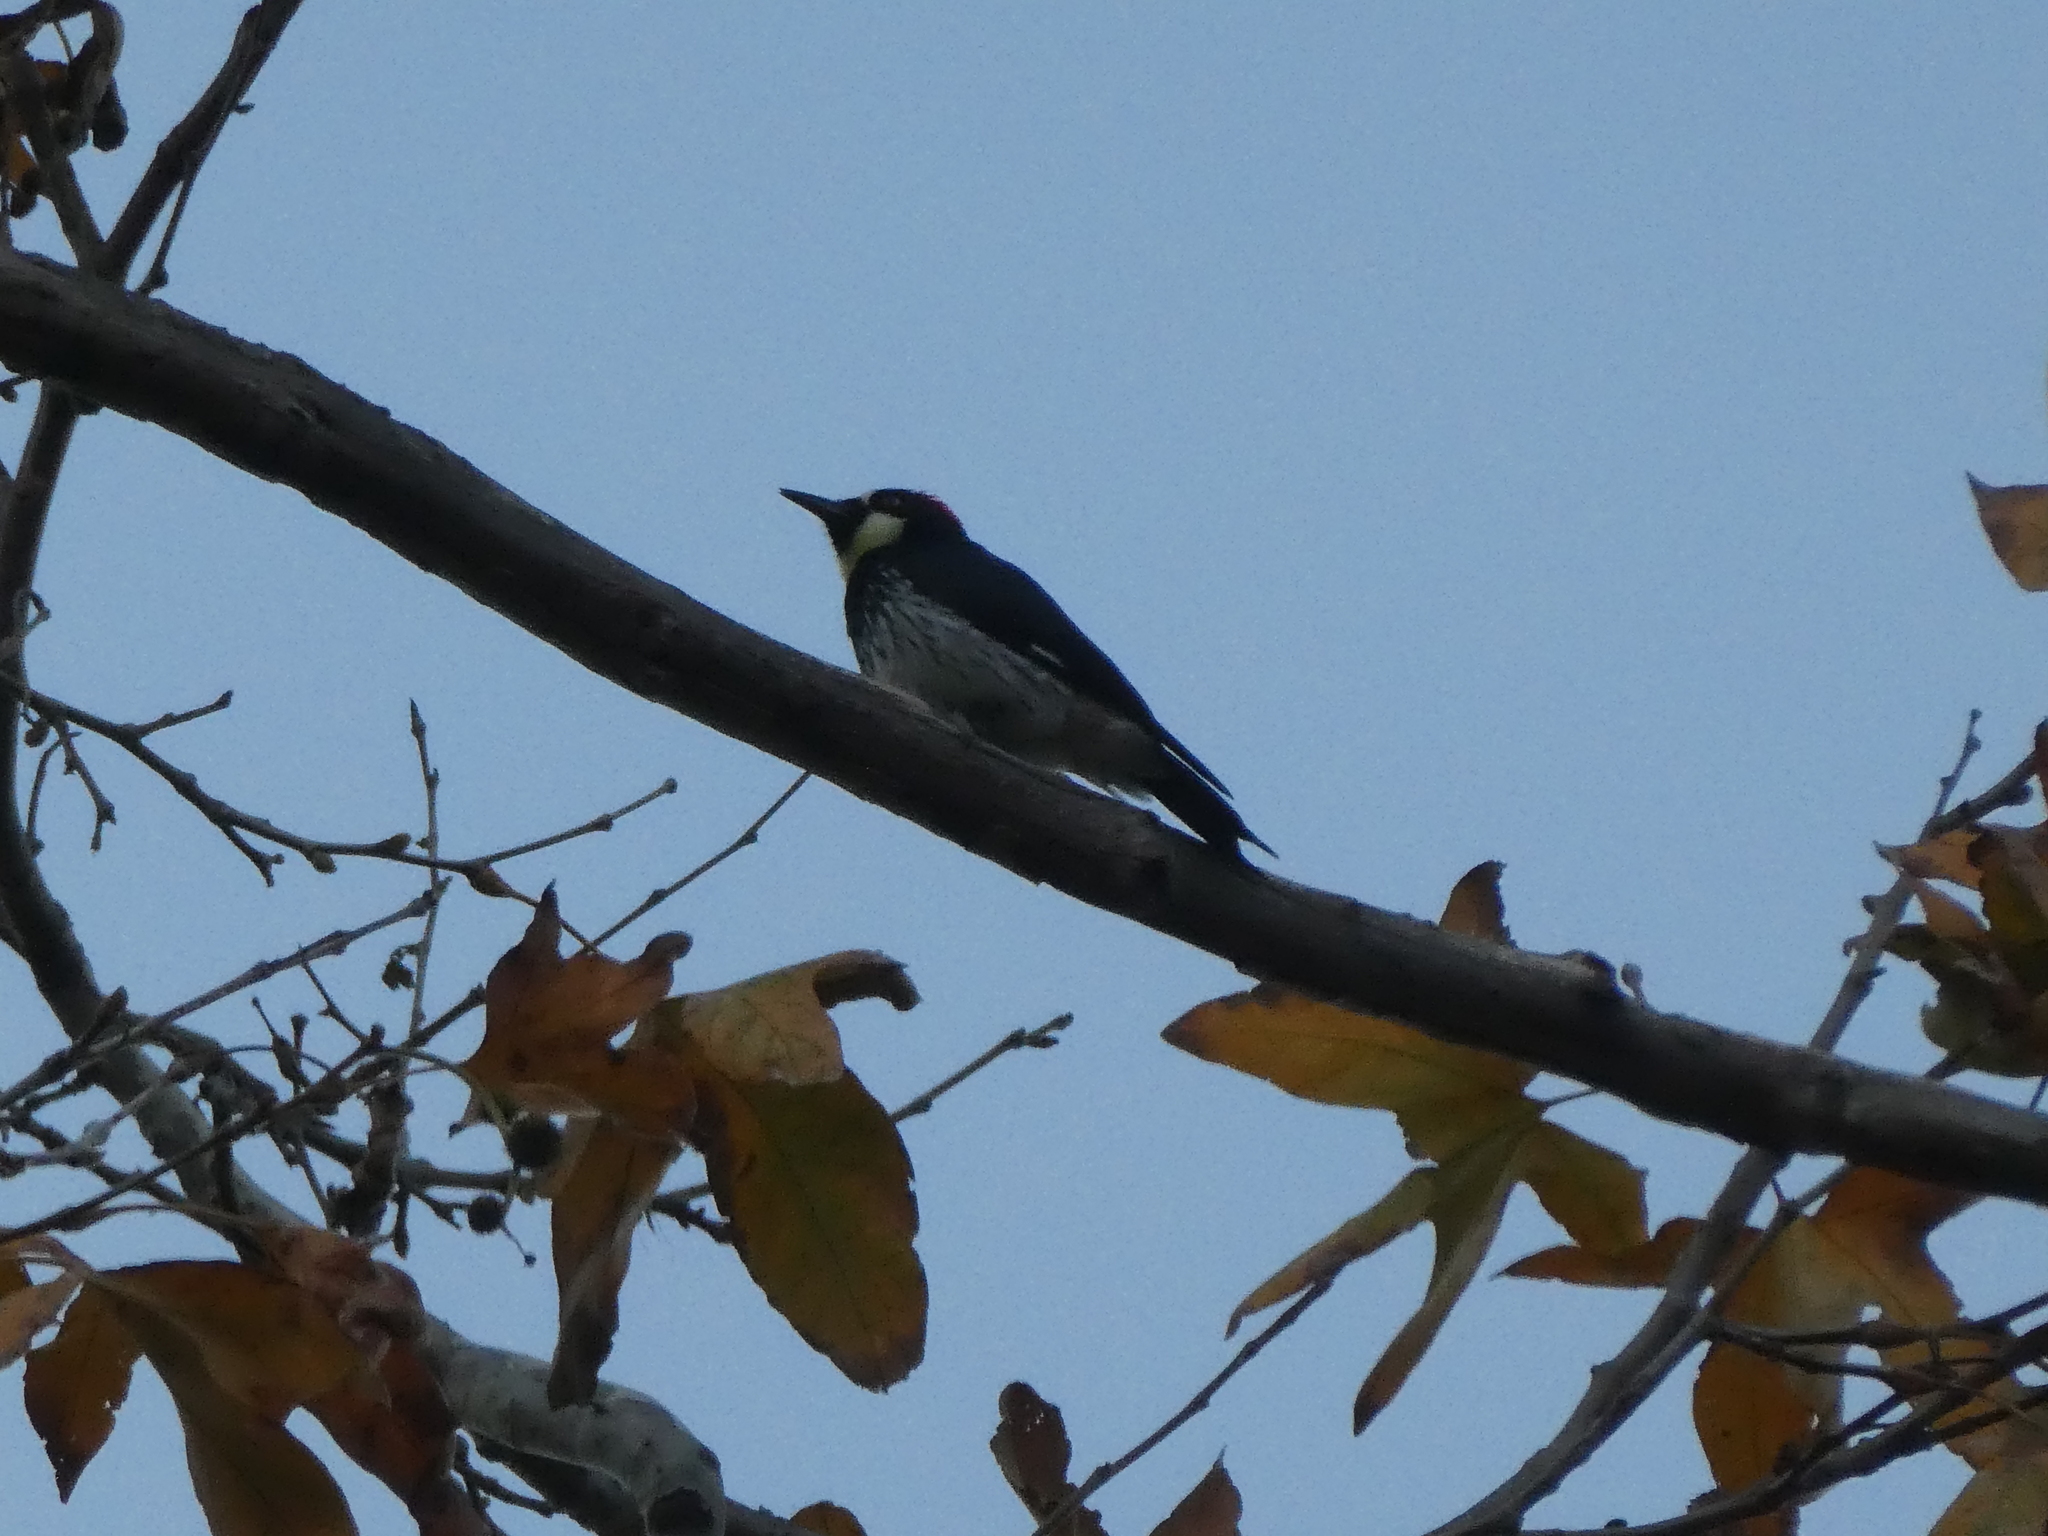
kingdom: Animalia
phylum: Chordata
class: Aves
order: Piciformes
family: Picidae
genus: Melanerpes
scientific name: Melanerpes formicivorus
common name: Acorn woodpecker
